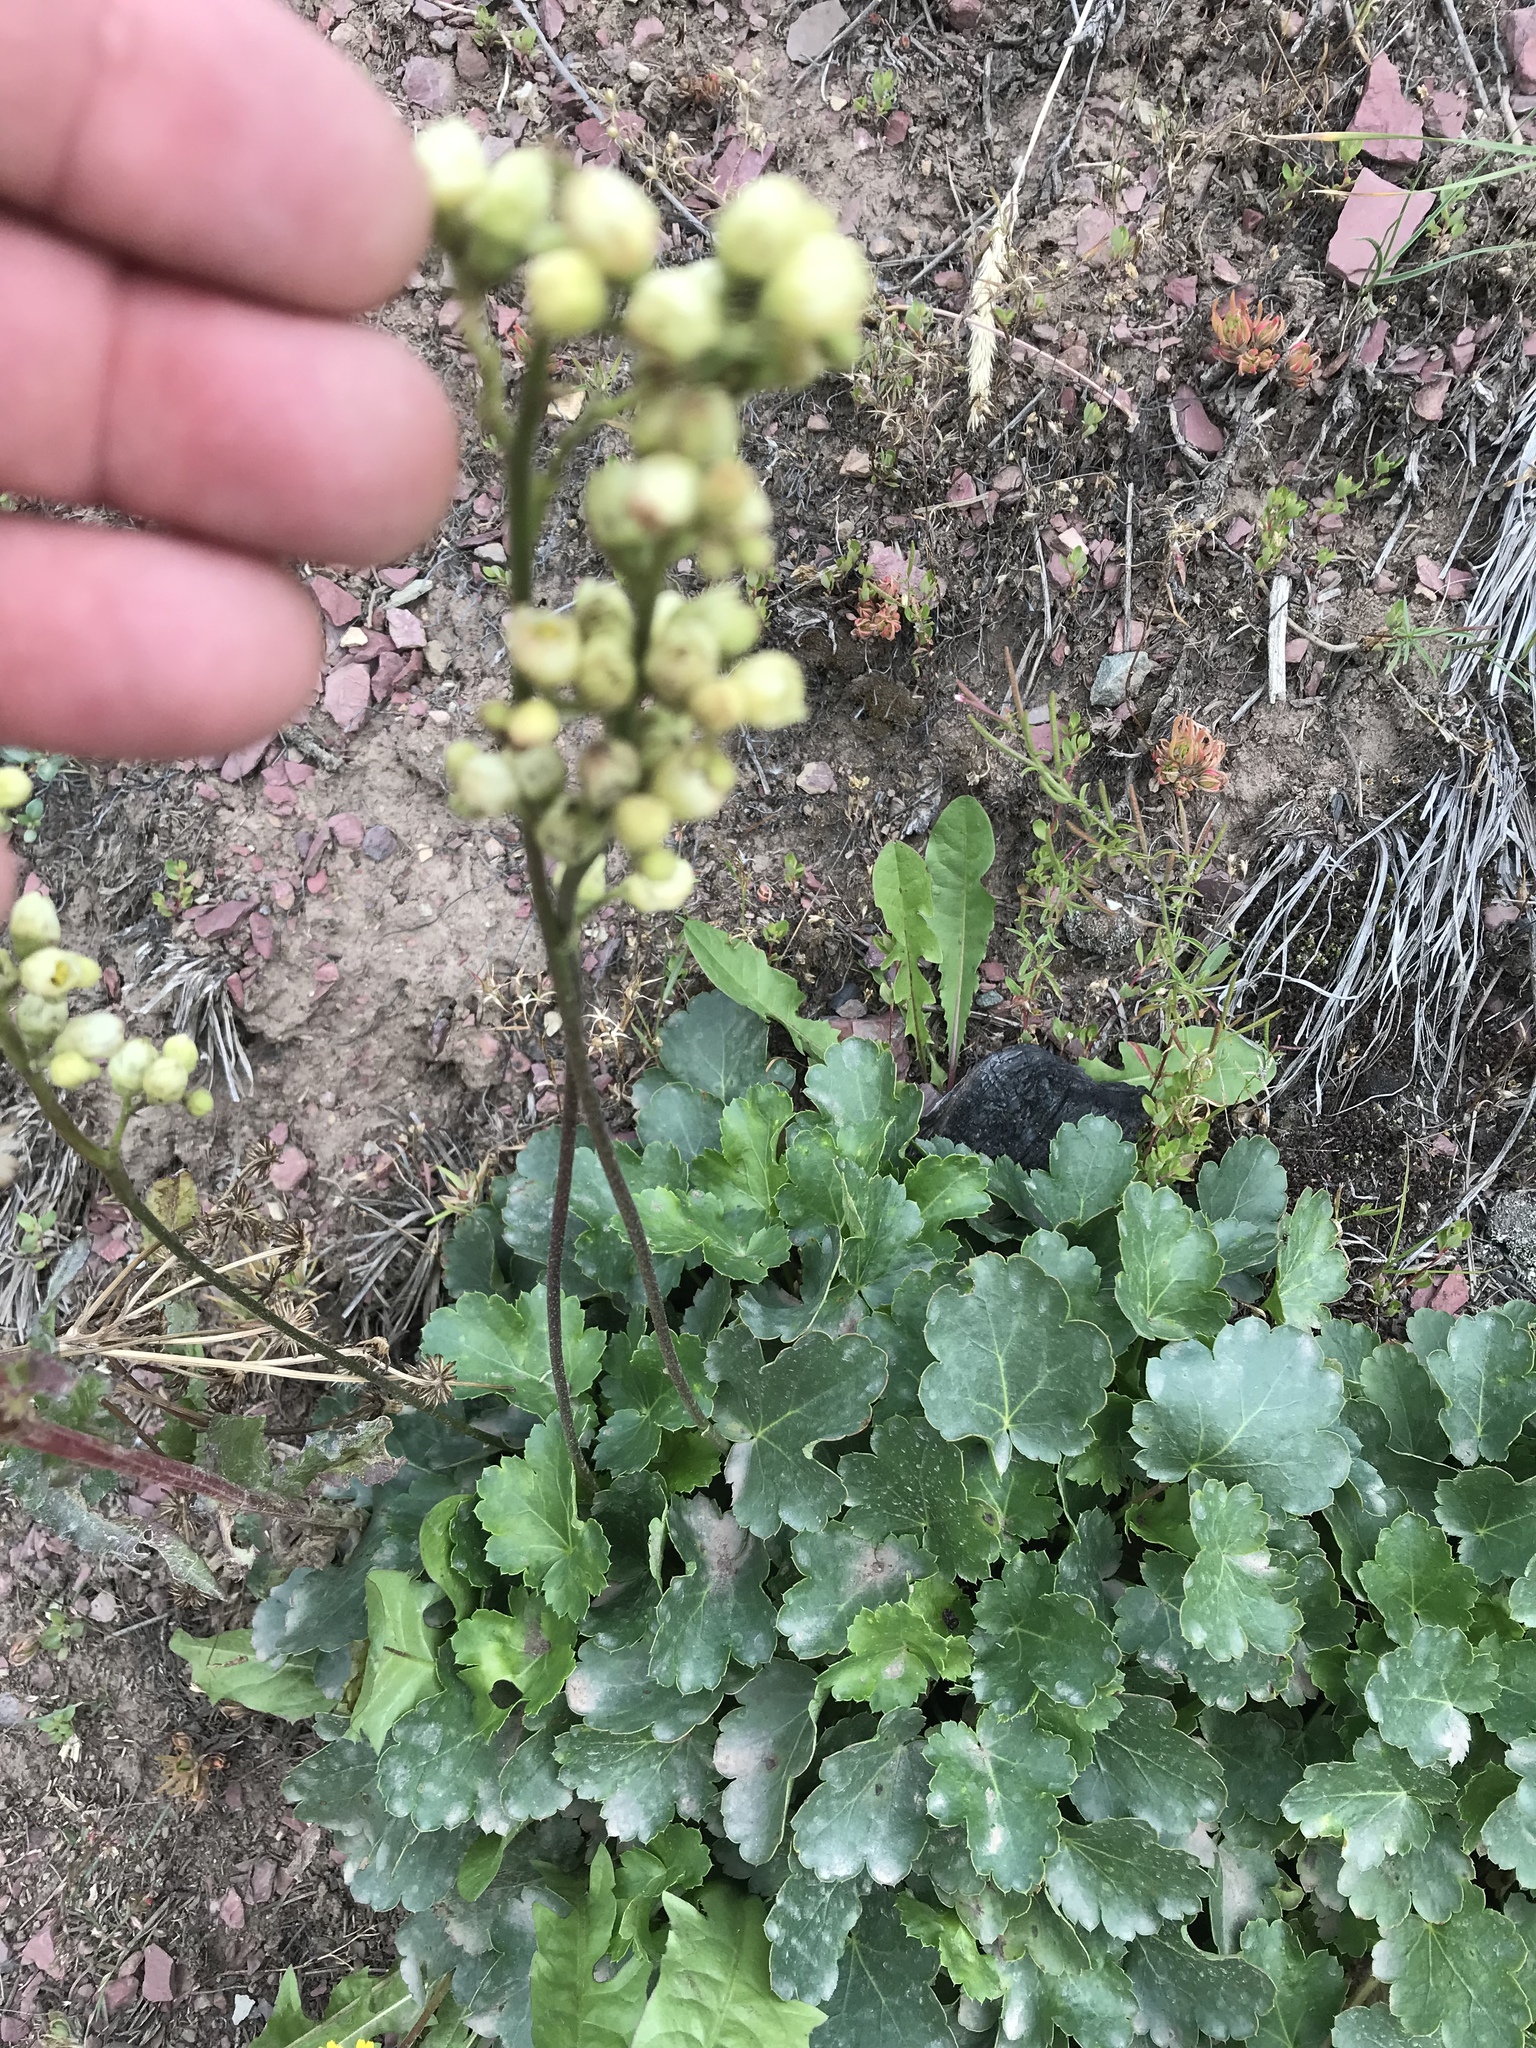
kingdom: Plantae
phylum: Tracheophyta
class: Magnoliopsida
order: Saxifragales
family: Saxifragaceae
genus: Heuchera
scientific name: Heuchera cylindrica
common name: Mat alumroot
